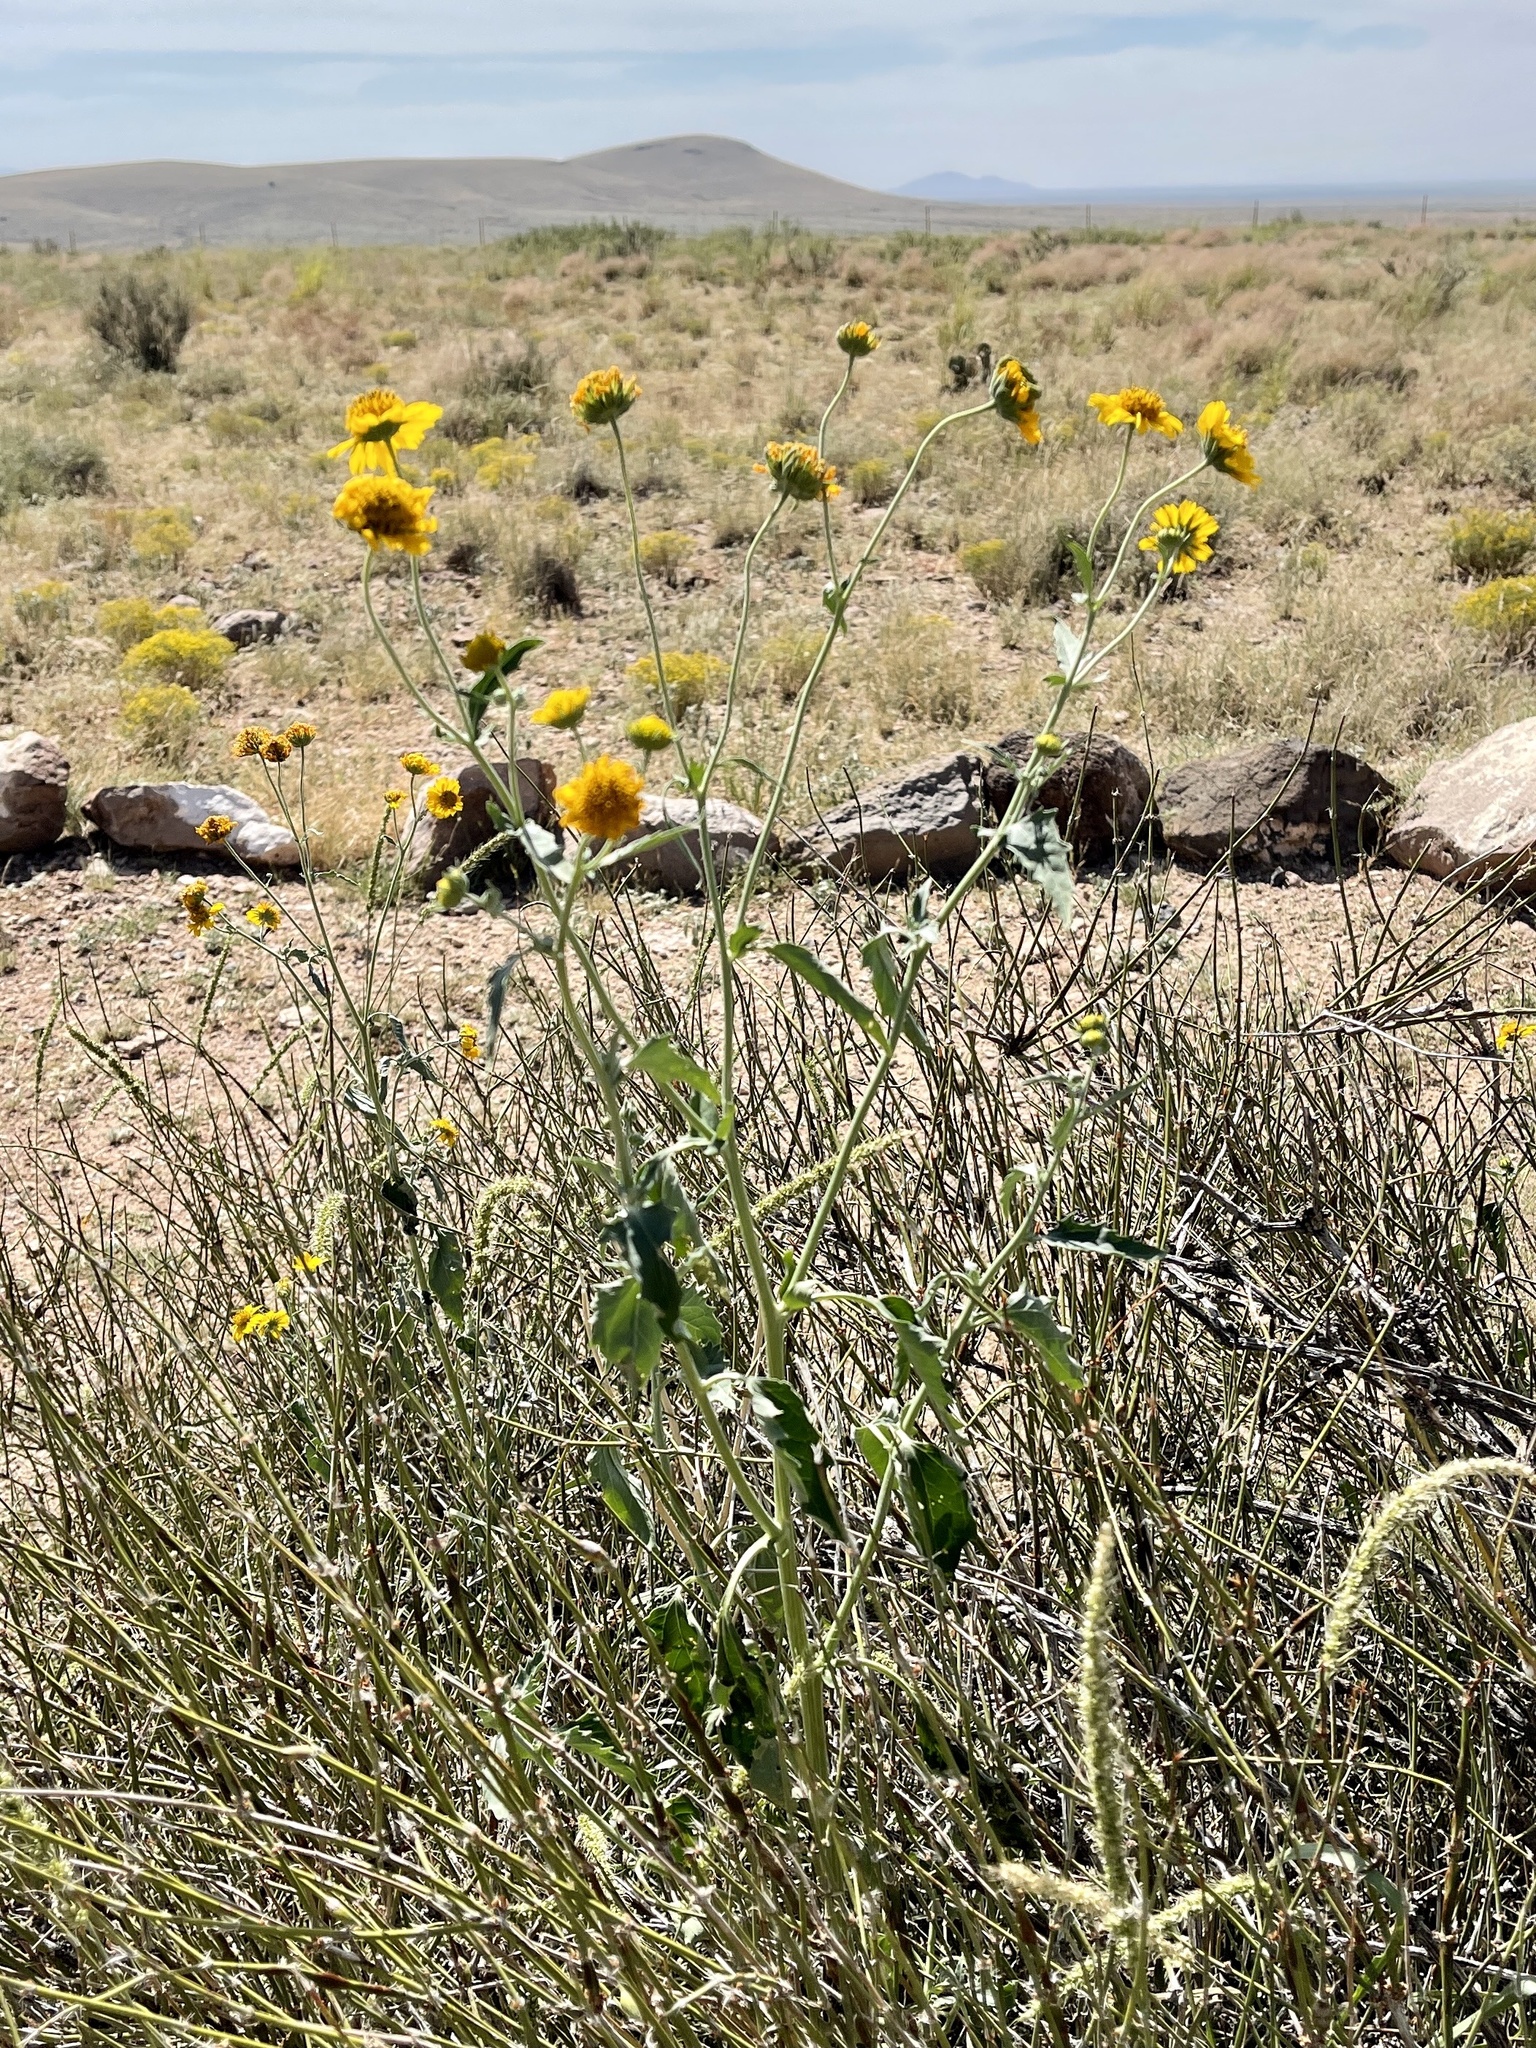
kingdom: Plantae
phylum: Tracheophyta
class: Magnoliopsida
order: Asterales
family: Asteraceae
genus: Verbesina
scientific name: Verbesina encelioides
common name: Golden crownbeard
